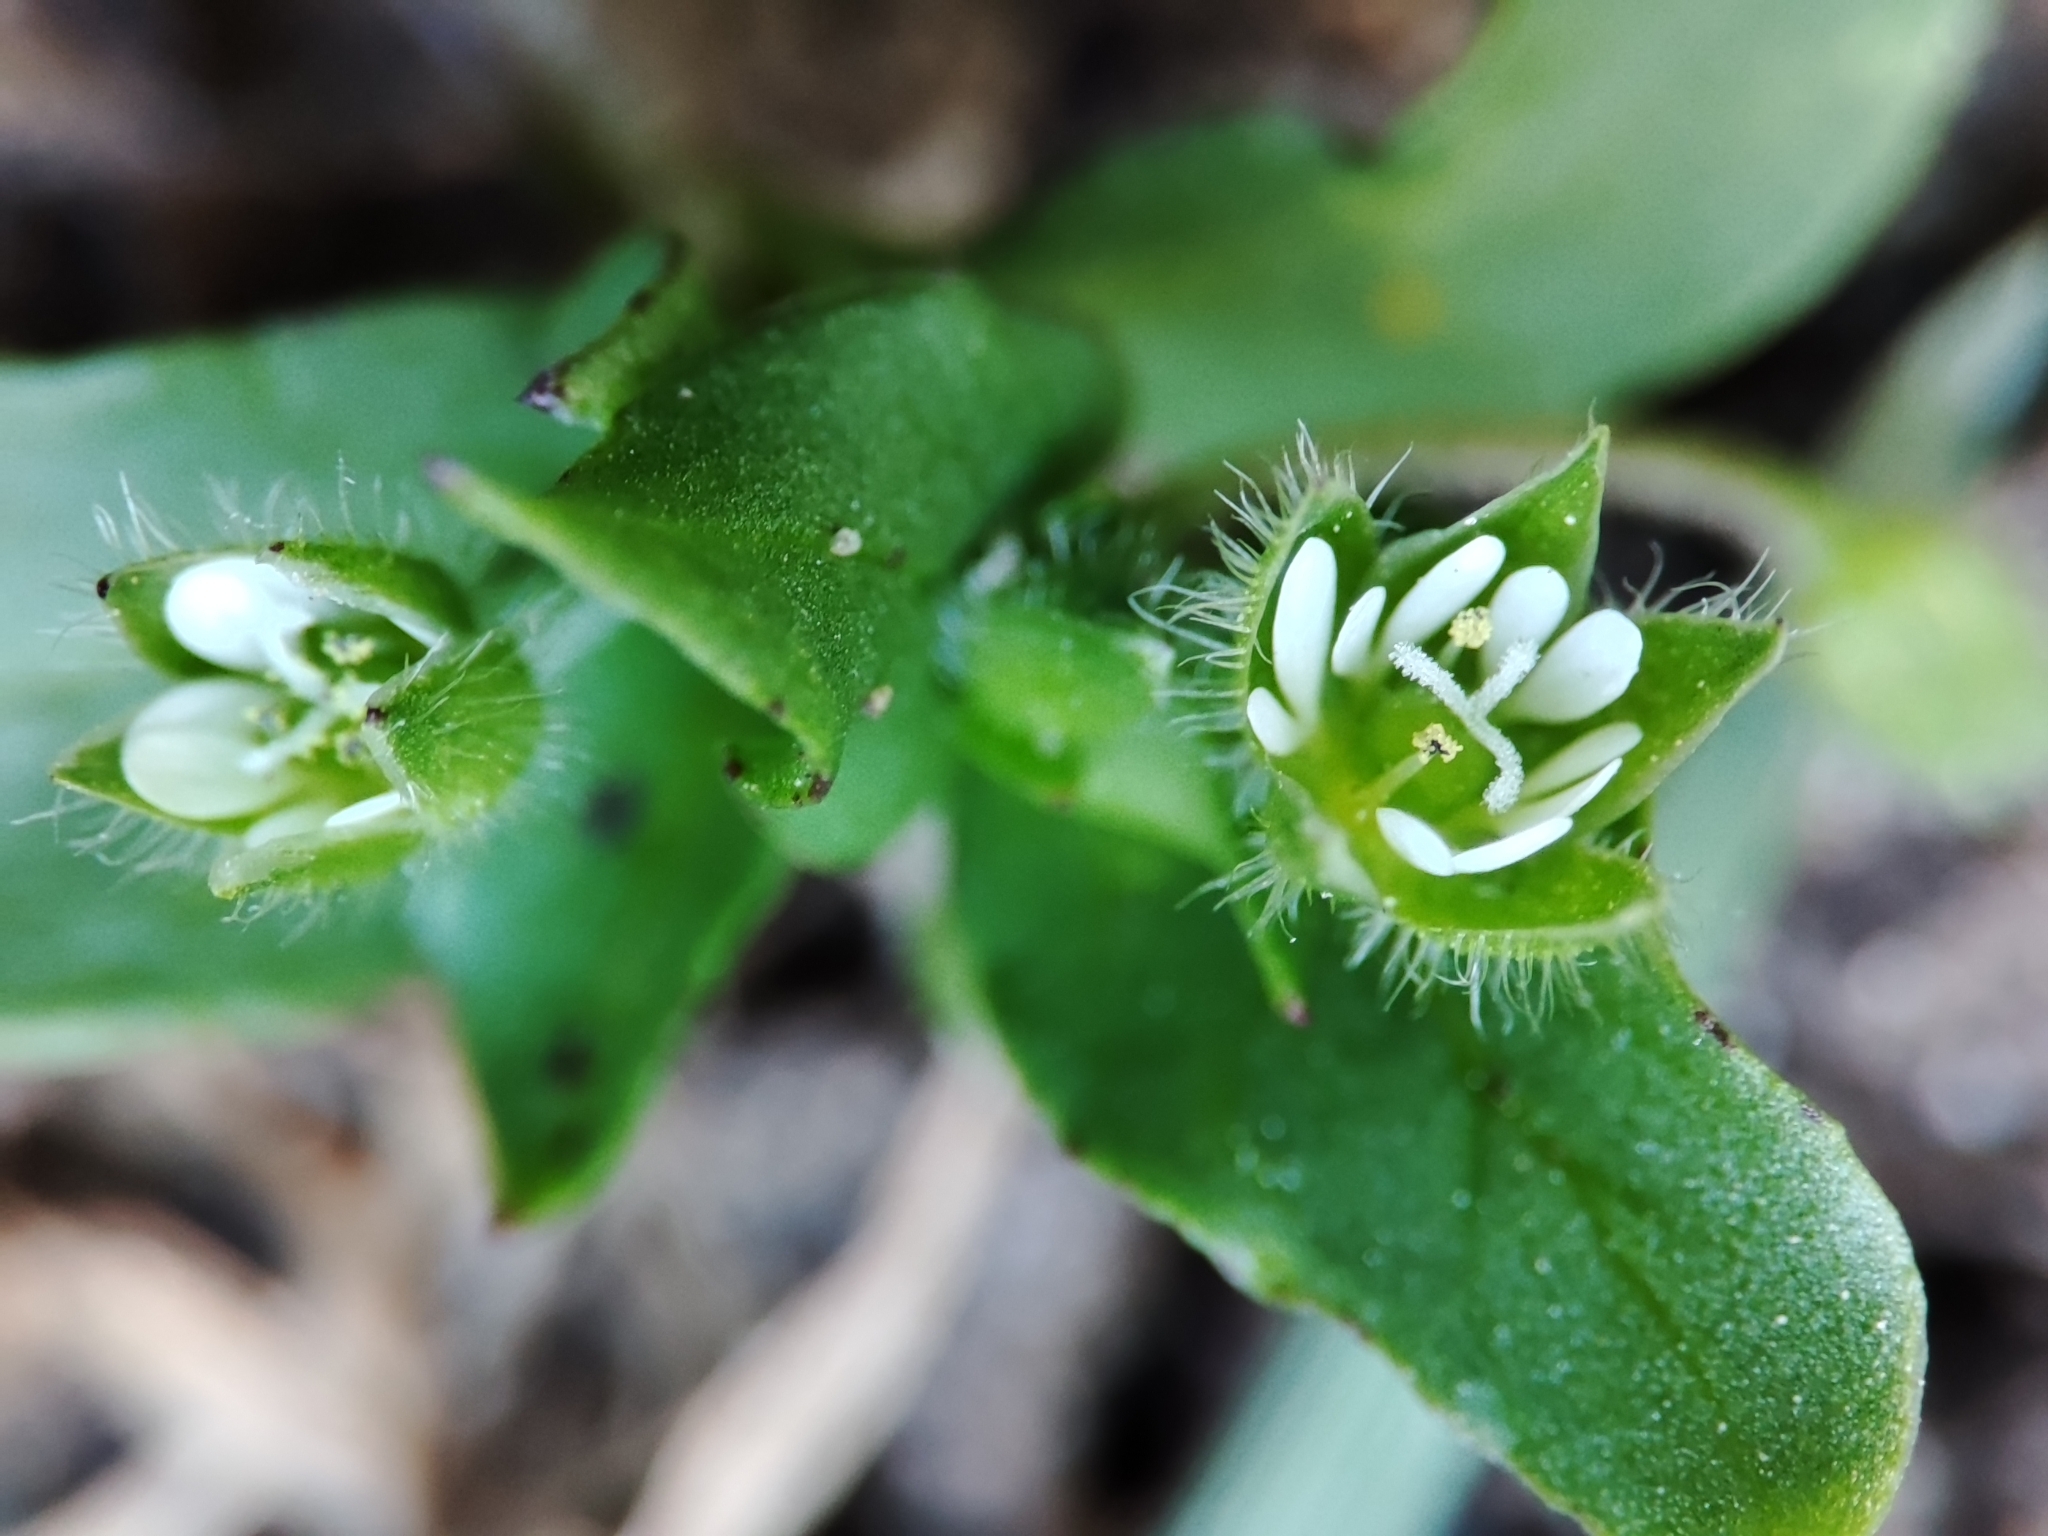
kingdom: Plantae
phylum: Tracheophyta
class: Magnoliopsida
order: Caryophyllales
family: Caryophyllaceae
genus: Stellaria
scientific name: Stellaria media
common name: Common chickweed
